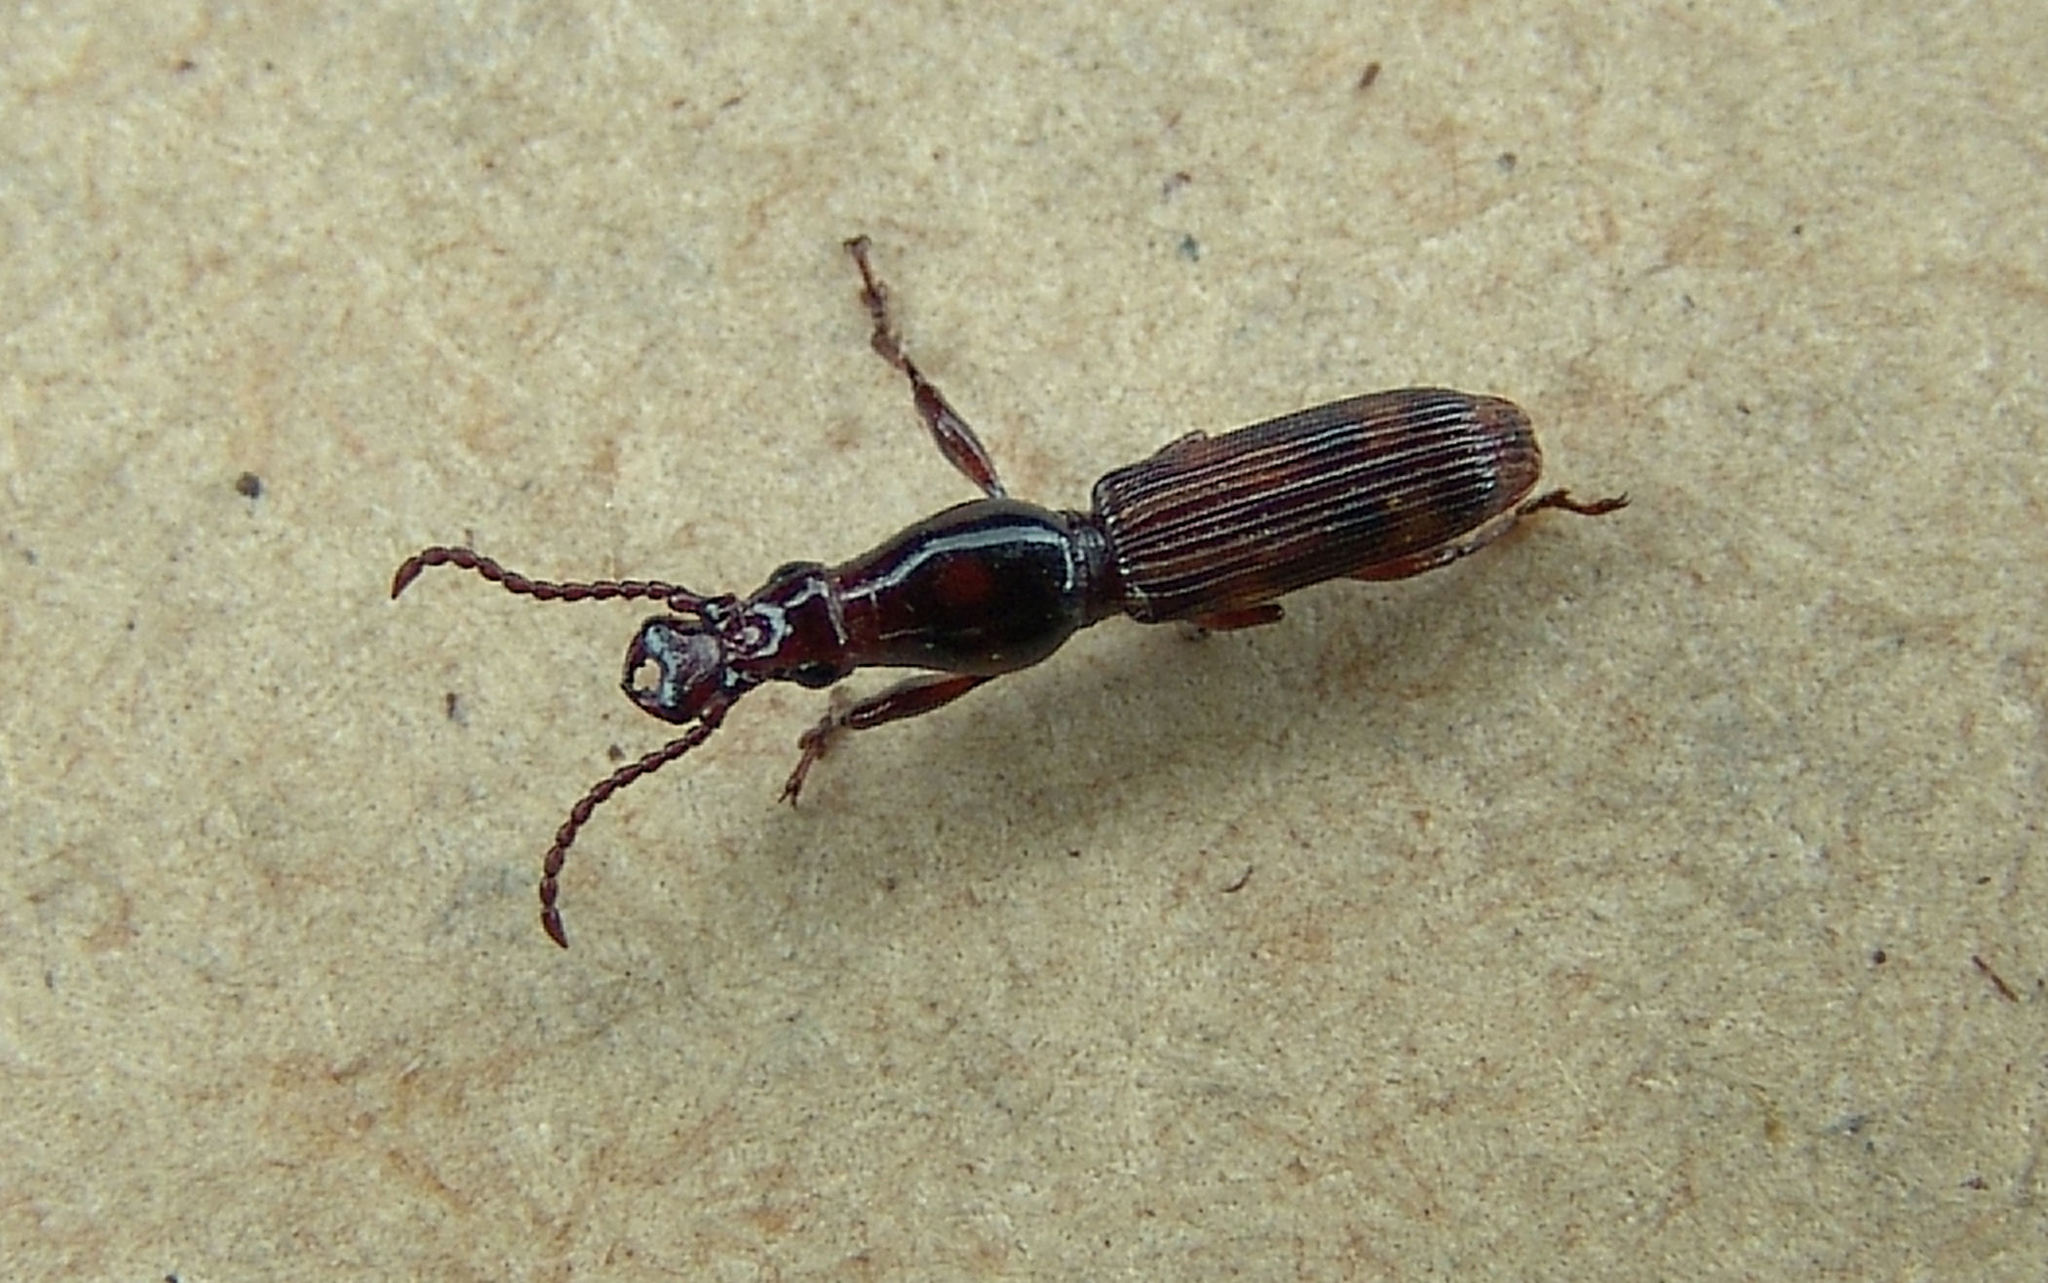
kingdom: Animalia
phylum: Arthropoda
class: Insecta
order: Coleoptera
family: Brentidae
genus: Arrenodes
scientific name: Arrenodes minutus
